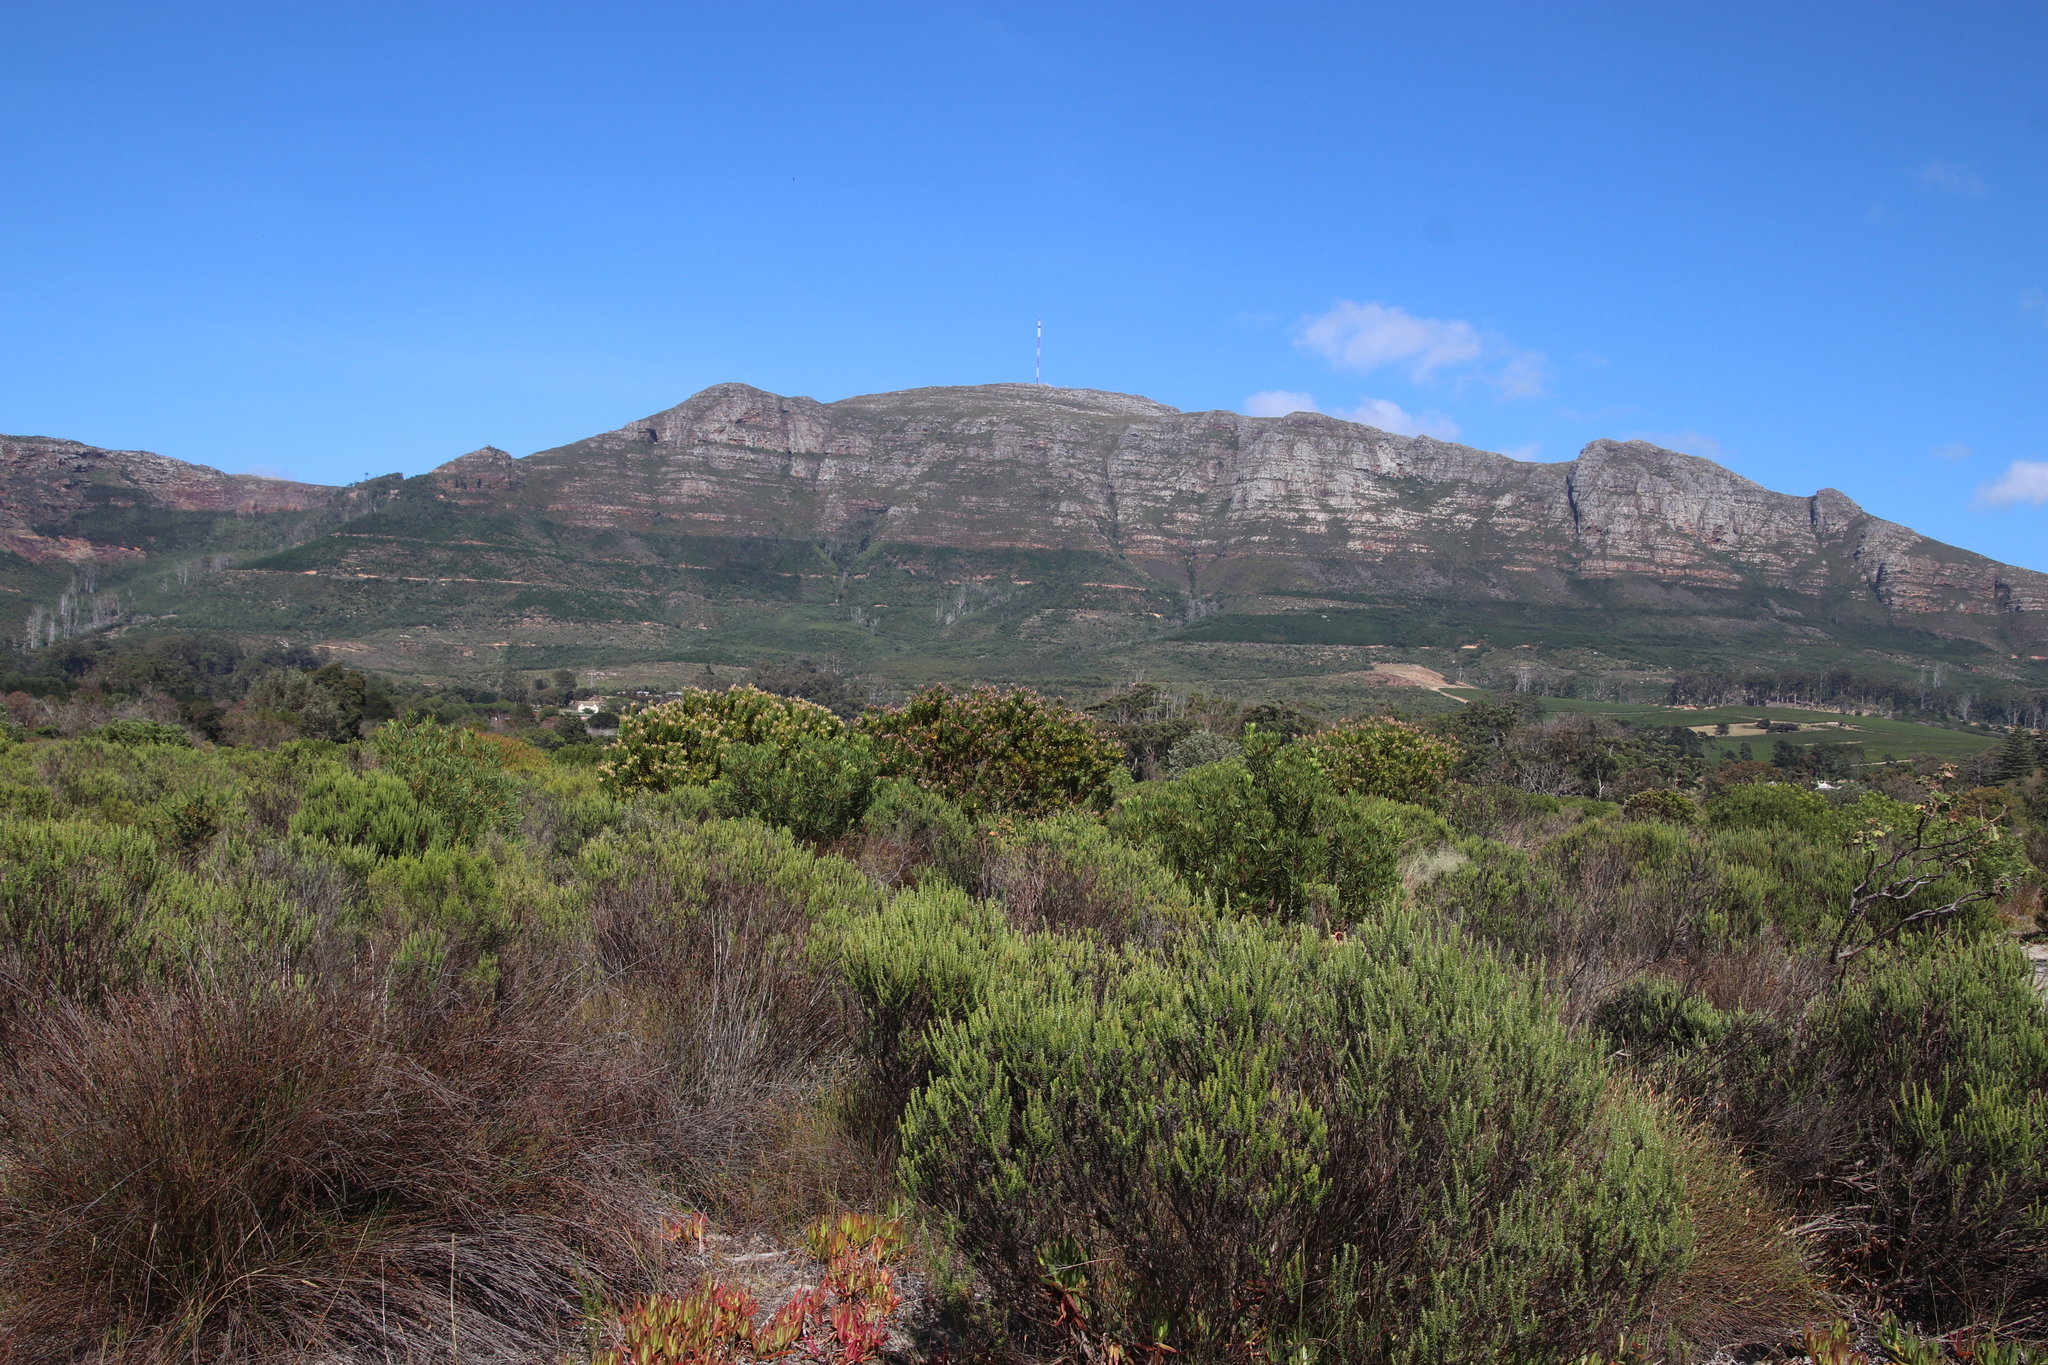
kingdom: Plantae
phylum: Tracheophyta
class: Magnoliopsida
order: Asterales
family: Asteraceae
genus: Metalasia
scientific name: Metalasia densa
